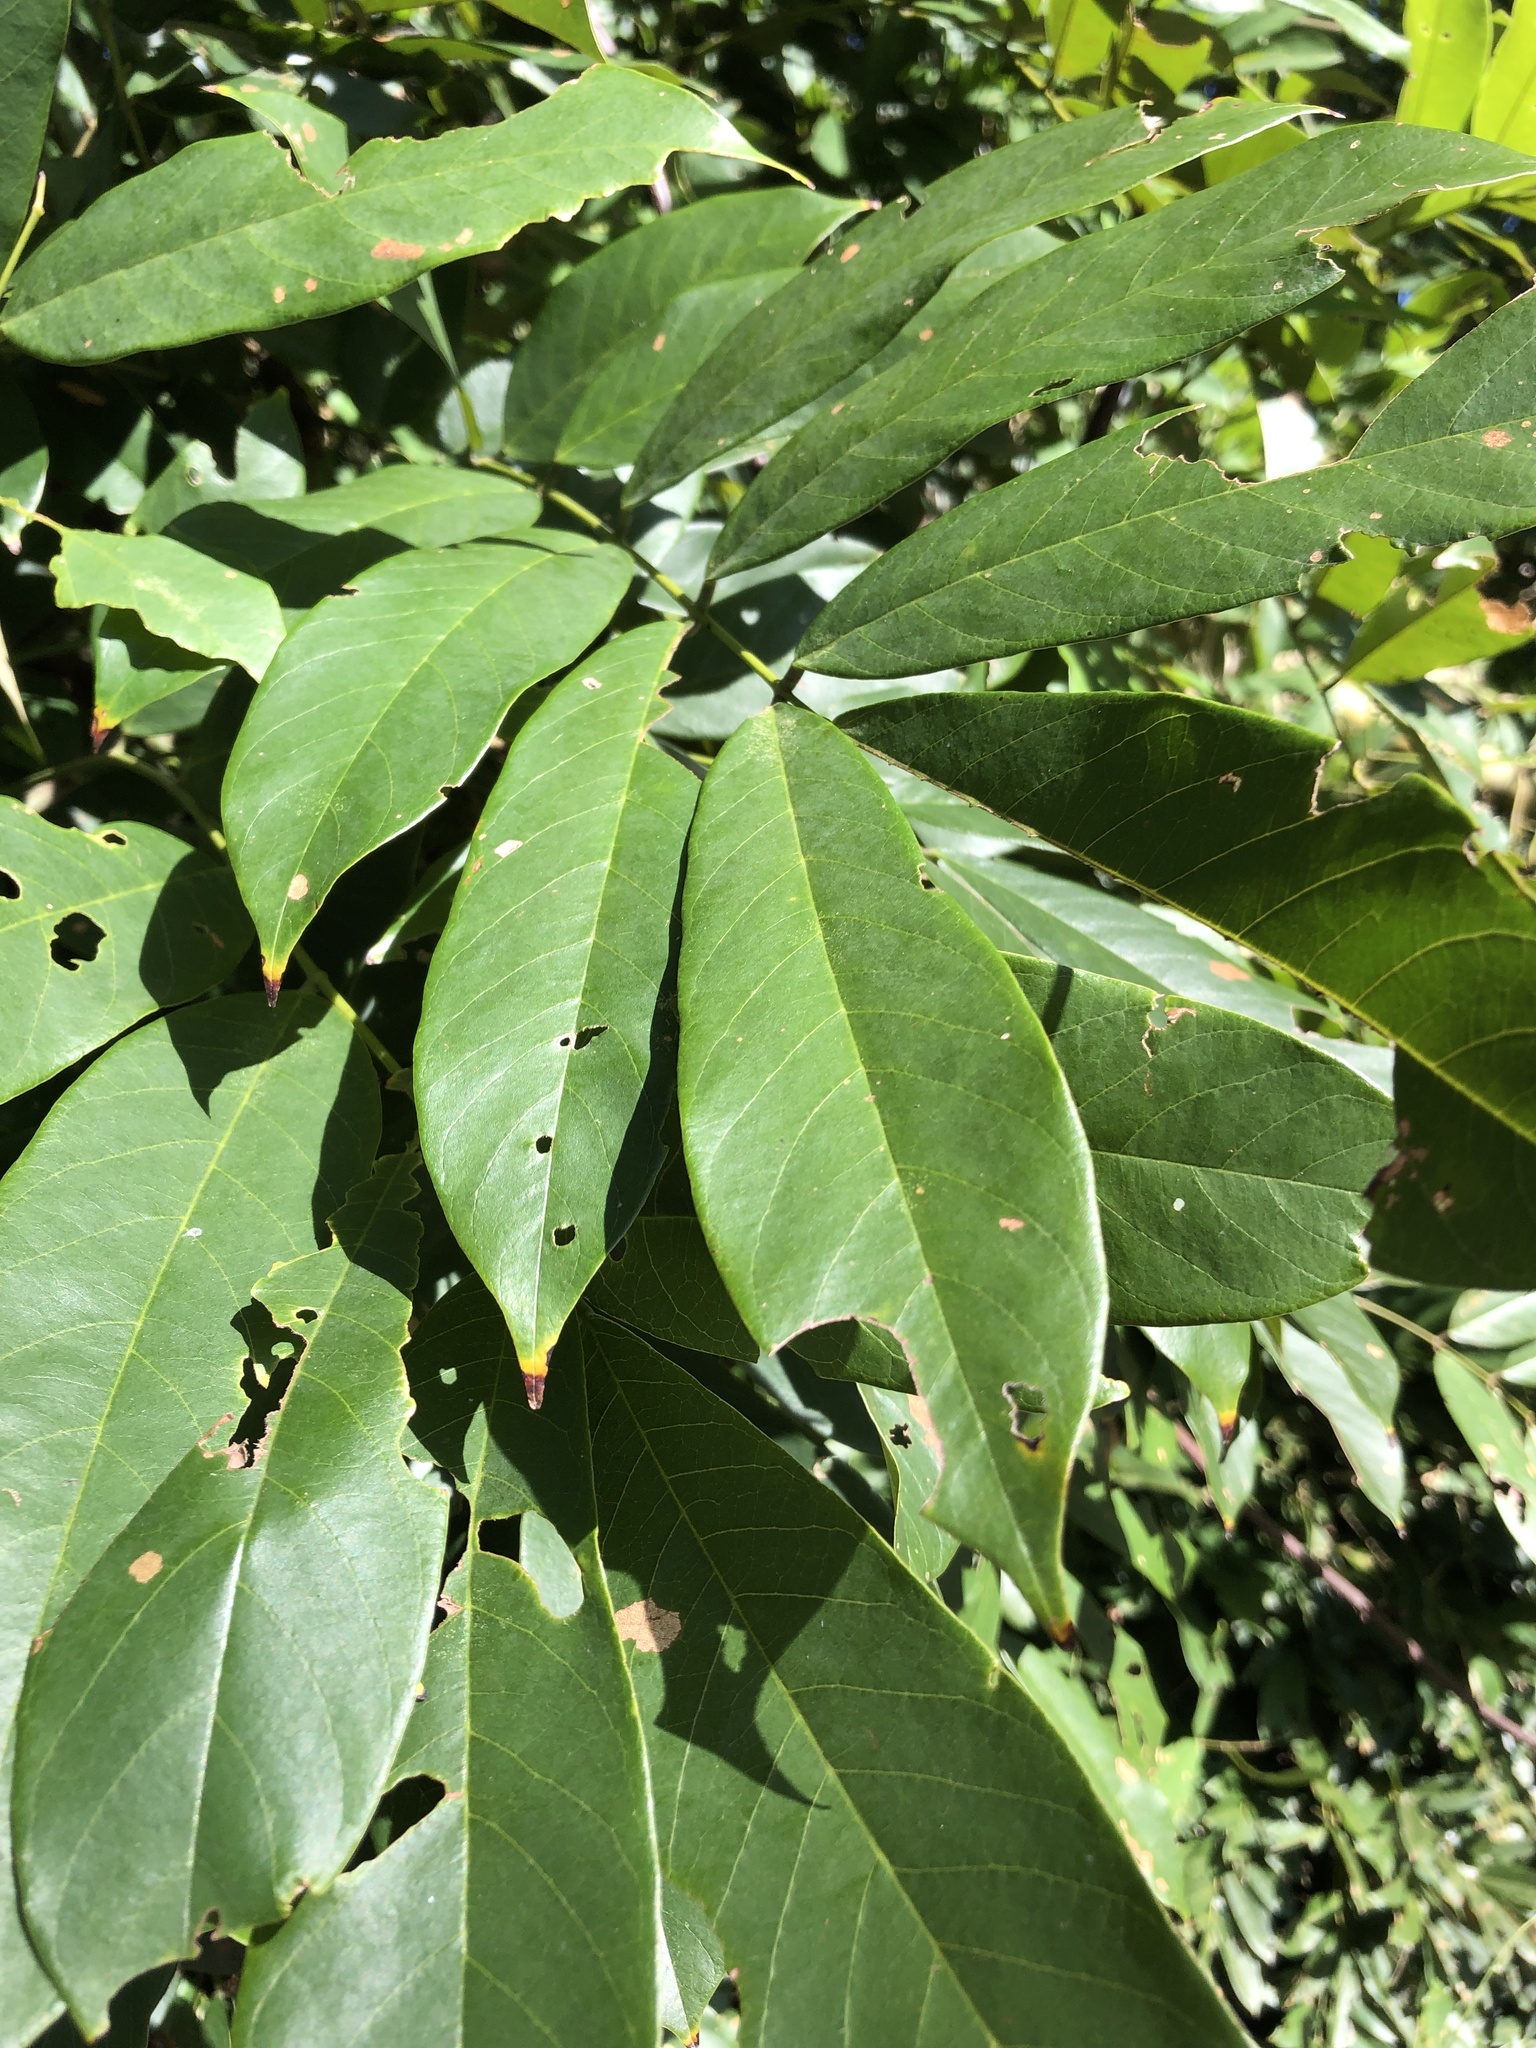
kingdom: Plantae
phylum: Tracheophyta
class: Magnoliopsida
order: Fabales
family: Fabaceae
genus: Millettia
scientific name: Millettia pachycarpa
